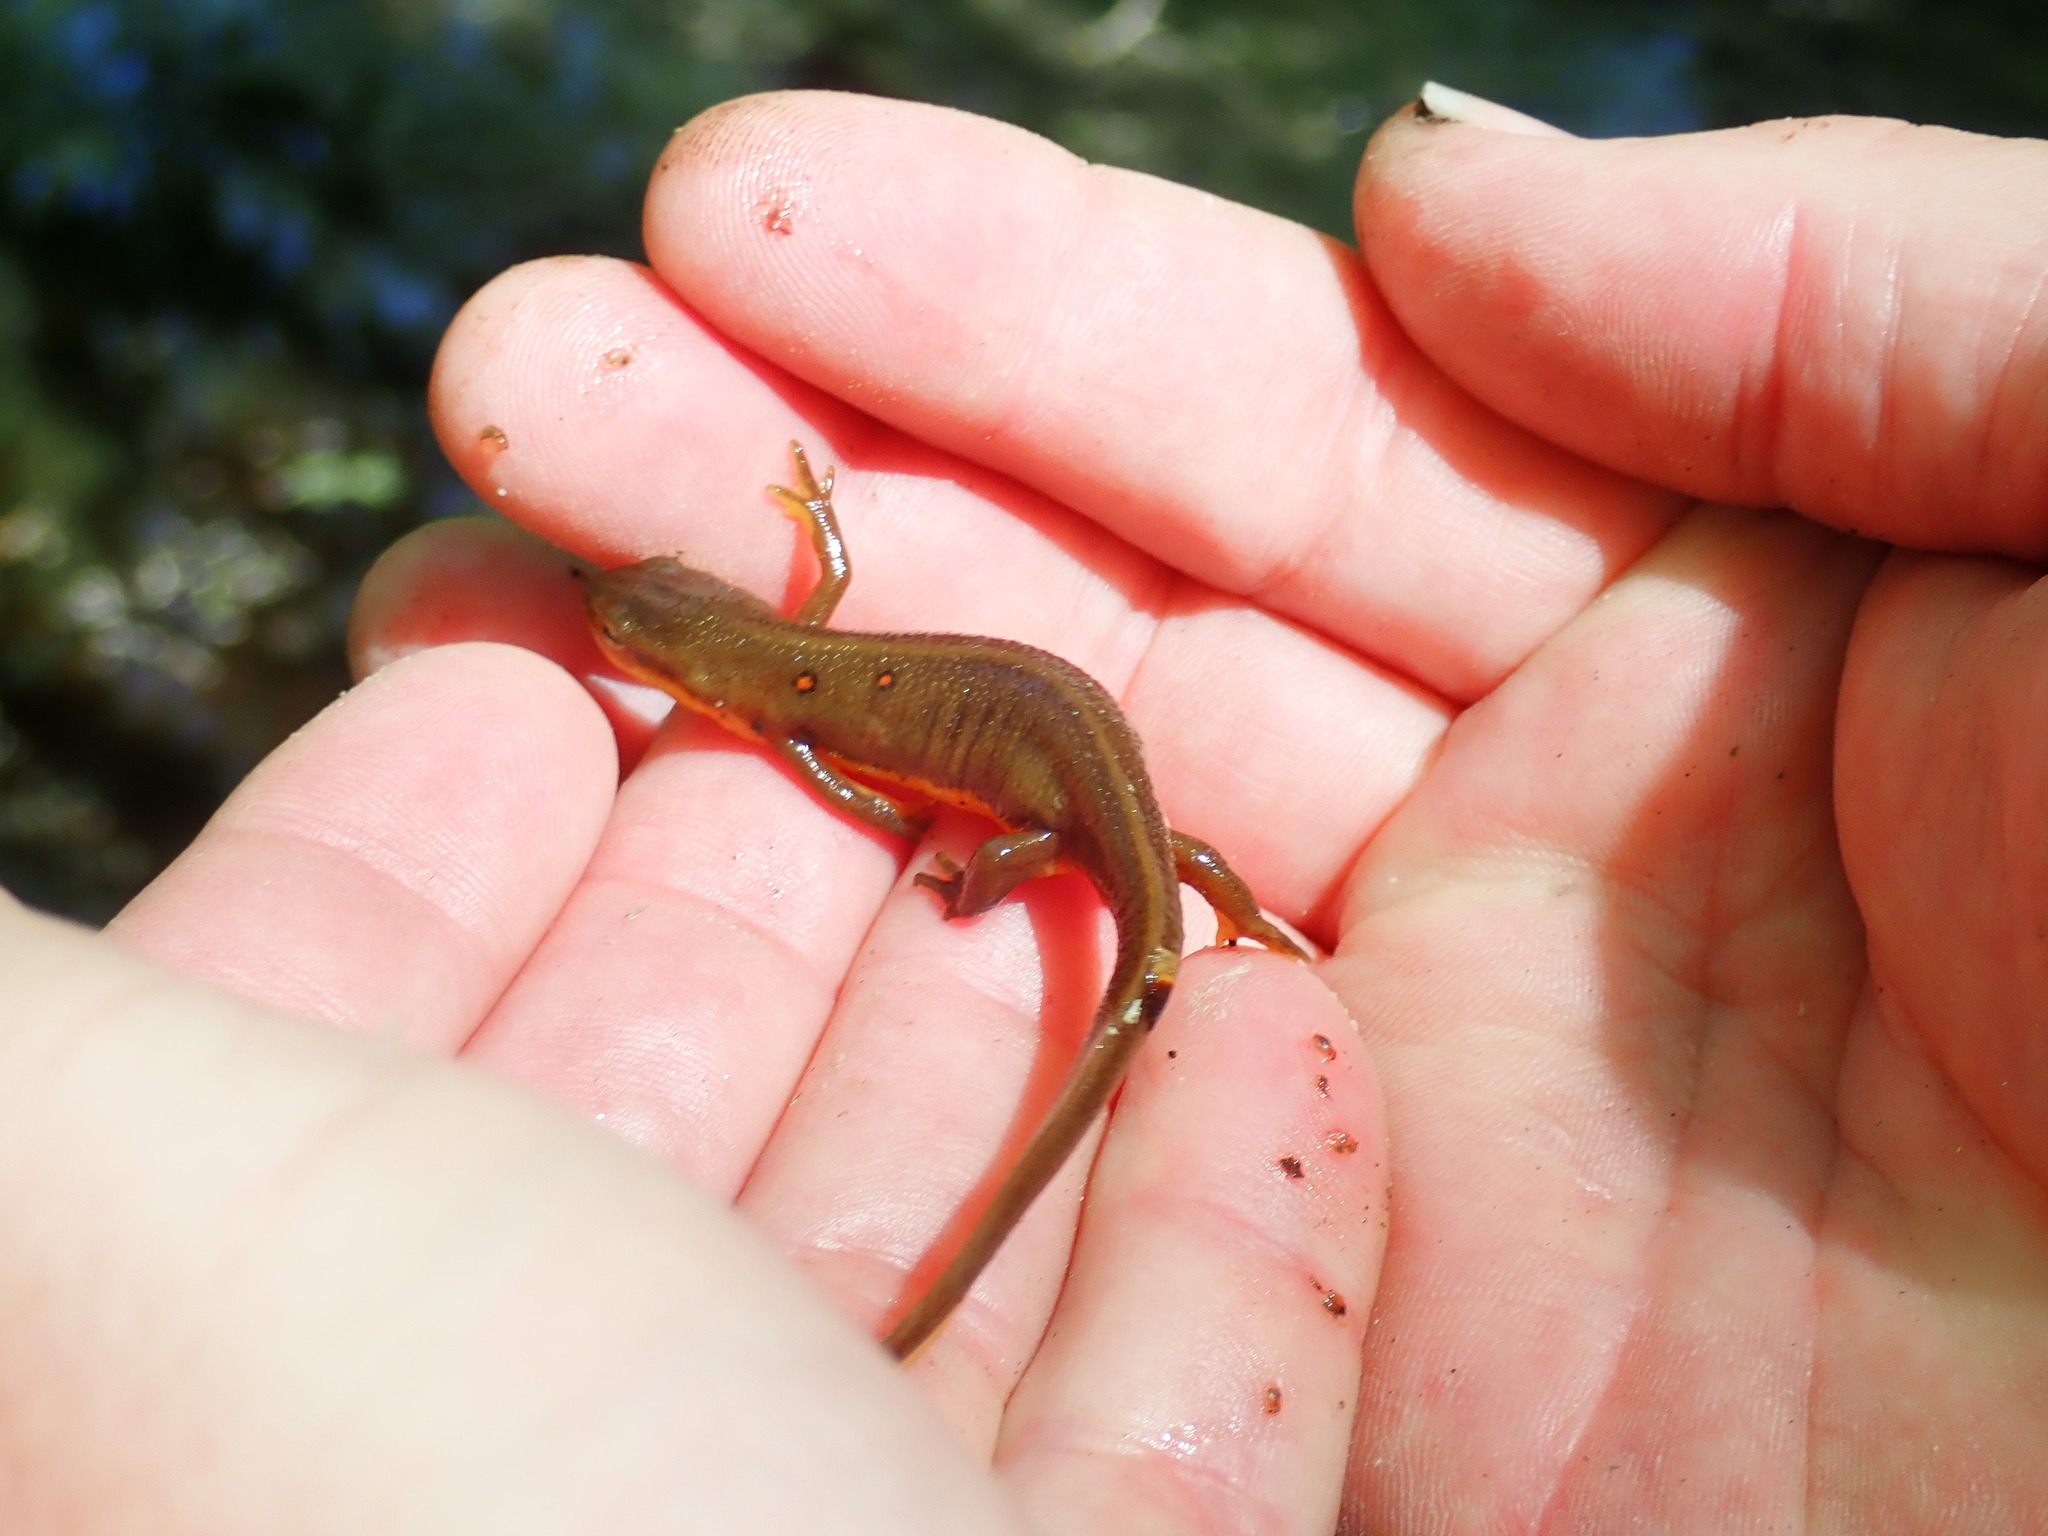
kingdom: Animalia
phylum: Chordata
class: Amphibia
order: Caudata
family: Salamandridae
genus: Notophthalmus
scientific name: Notophthalmus viridescens
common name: Eastern newt
